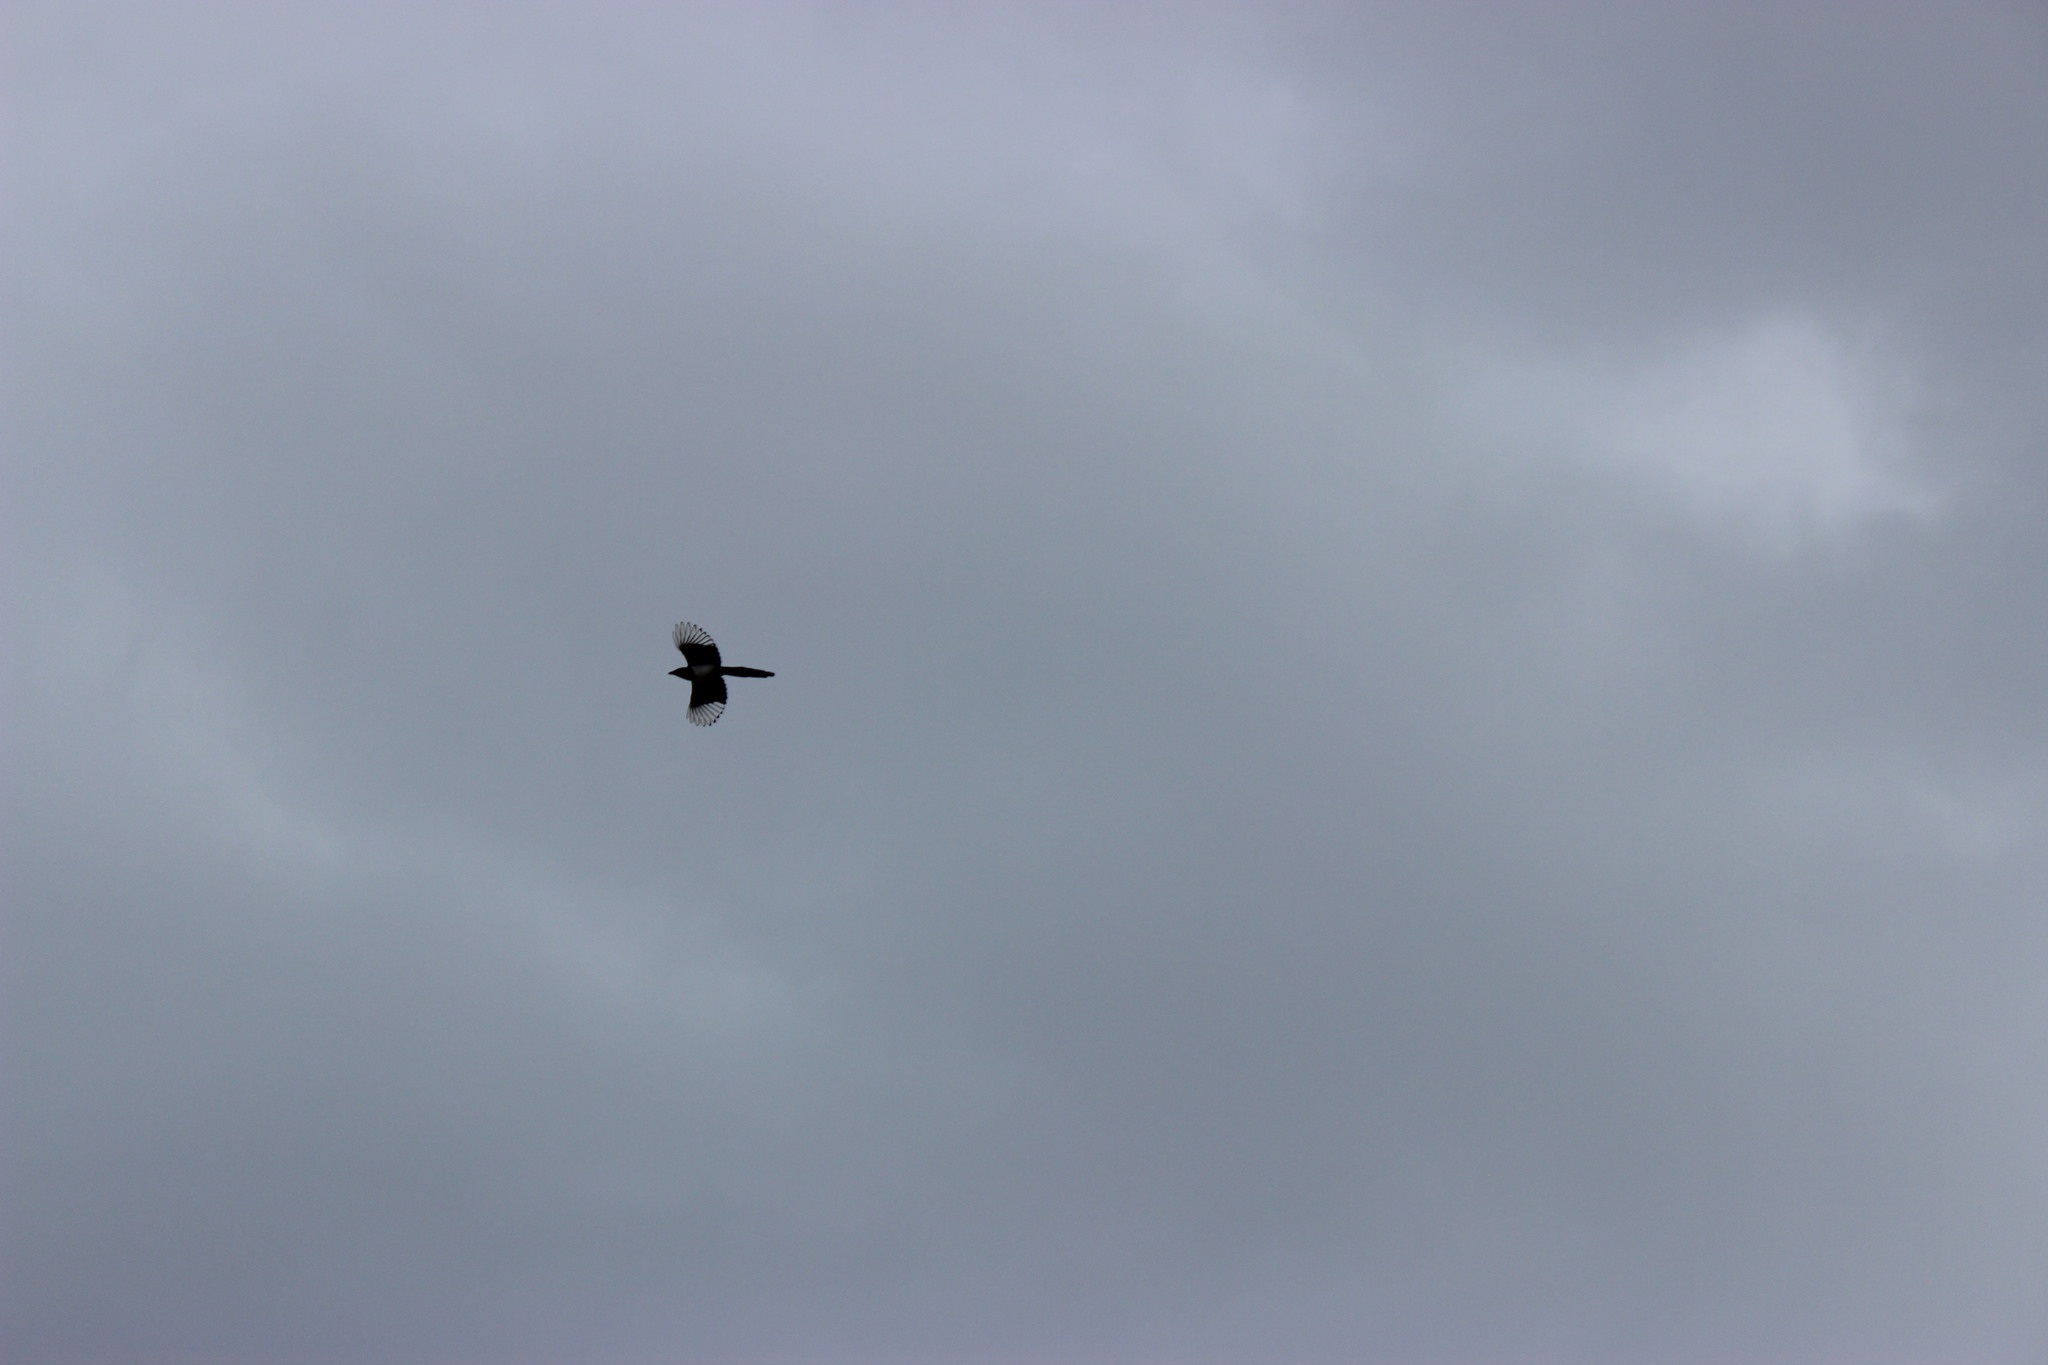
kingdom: Animalia
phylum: Chordata
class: Aves
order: Passeriformes
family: Corvidae
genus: Pica
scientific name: Pica pica
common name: Eurasian magpie
